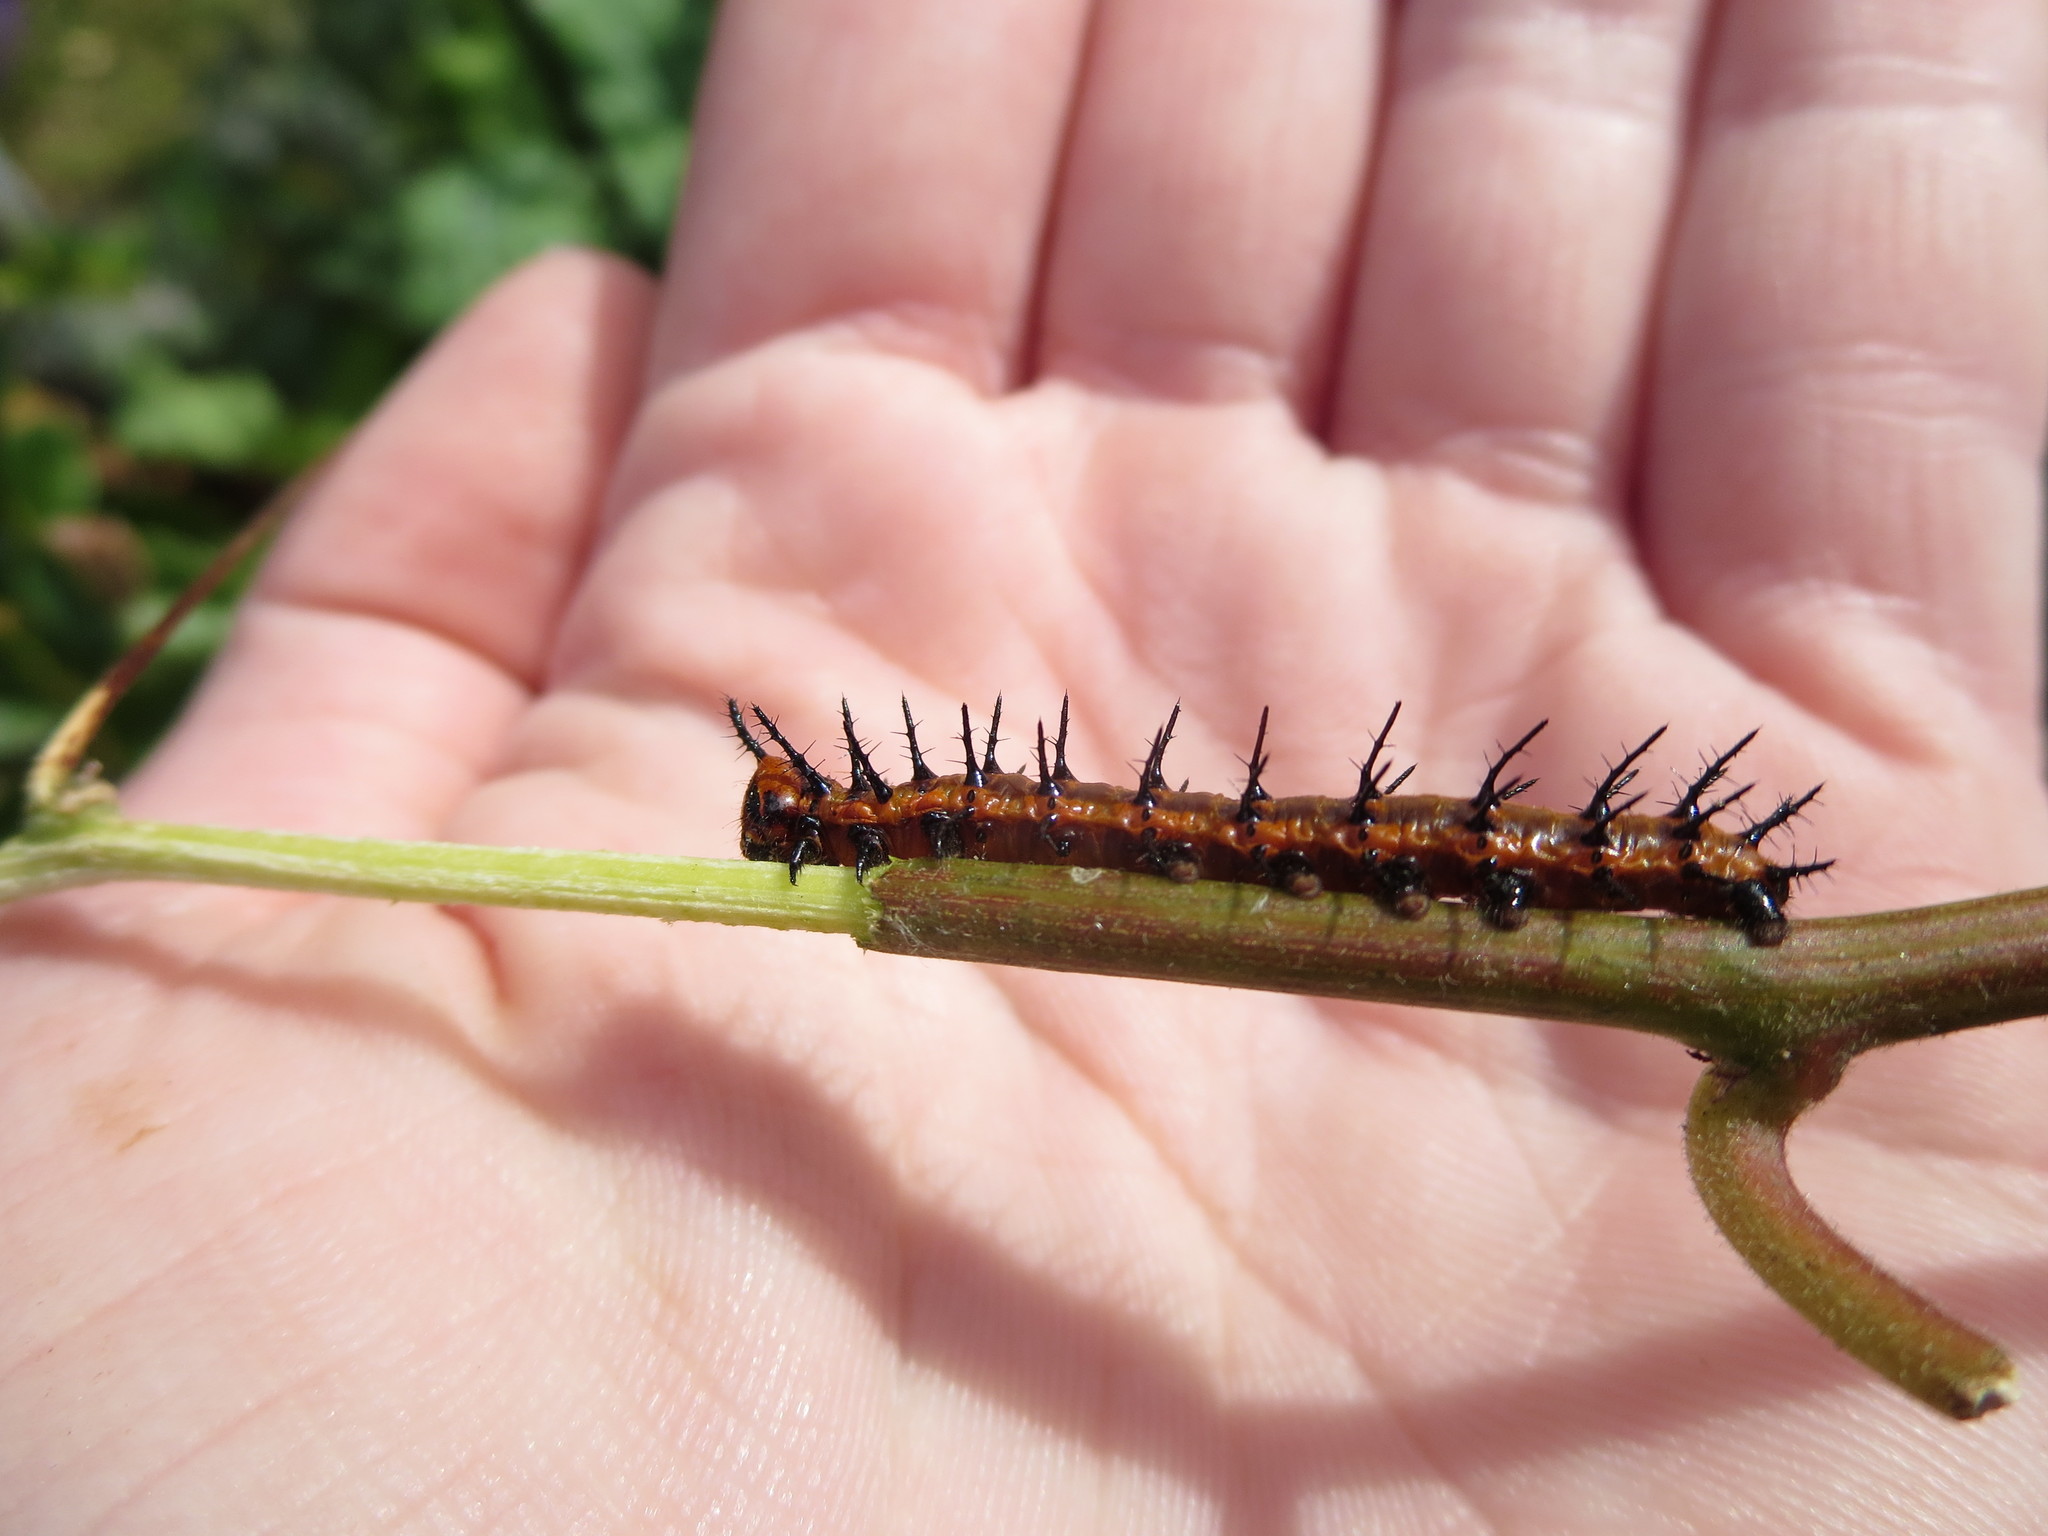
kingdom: Animalia
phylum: Arthropoda
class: Insecta
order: Lepidoptera
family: Nymphalidae
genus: Dione
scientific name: Dione vanillae
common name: Gulf fritillary
